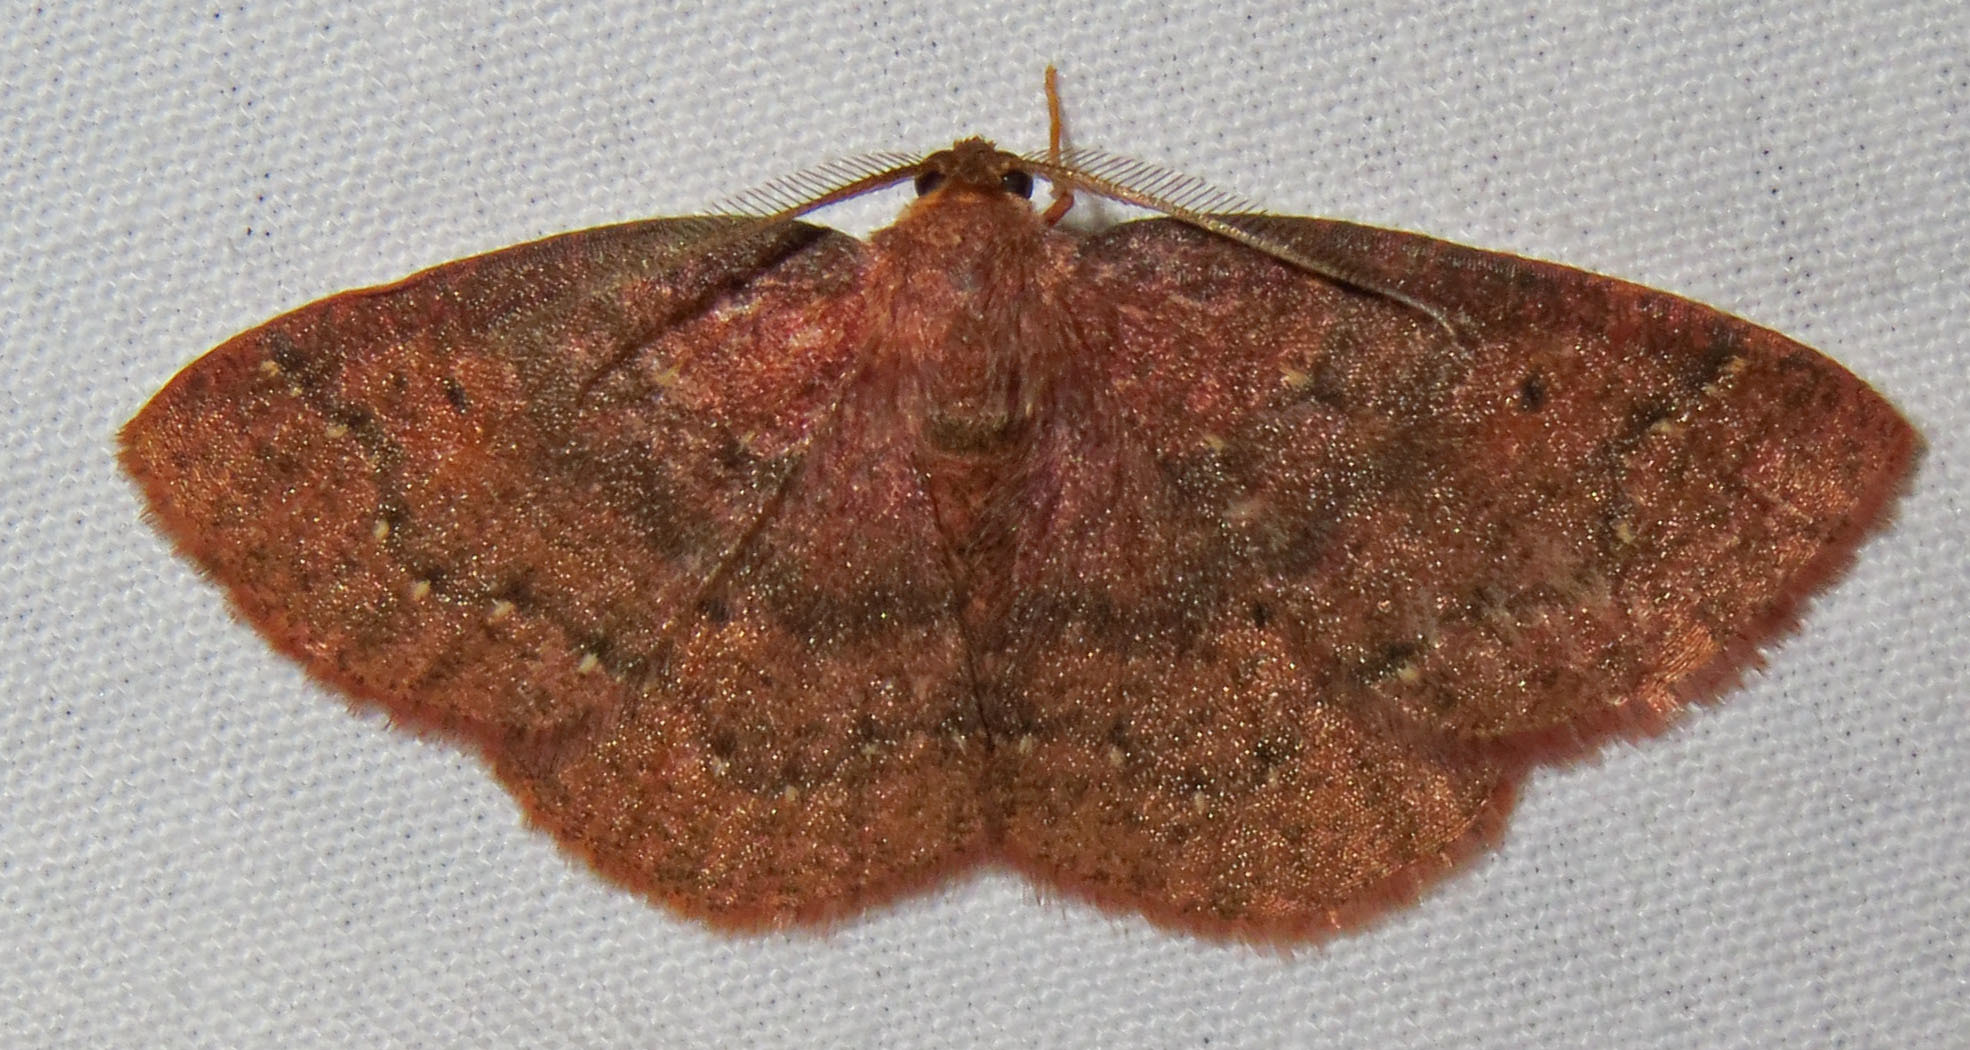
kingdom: Animalia
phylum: Arthropoda
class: Insecta
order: Lepidoptera
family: Geometridae
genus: Ilexia
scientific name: Ilexia intractata
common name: Black-dotted ruddy moth
